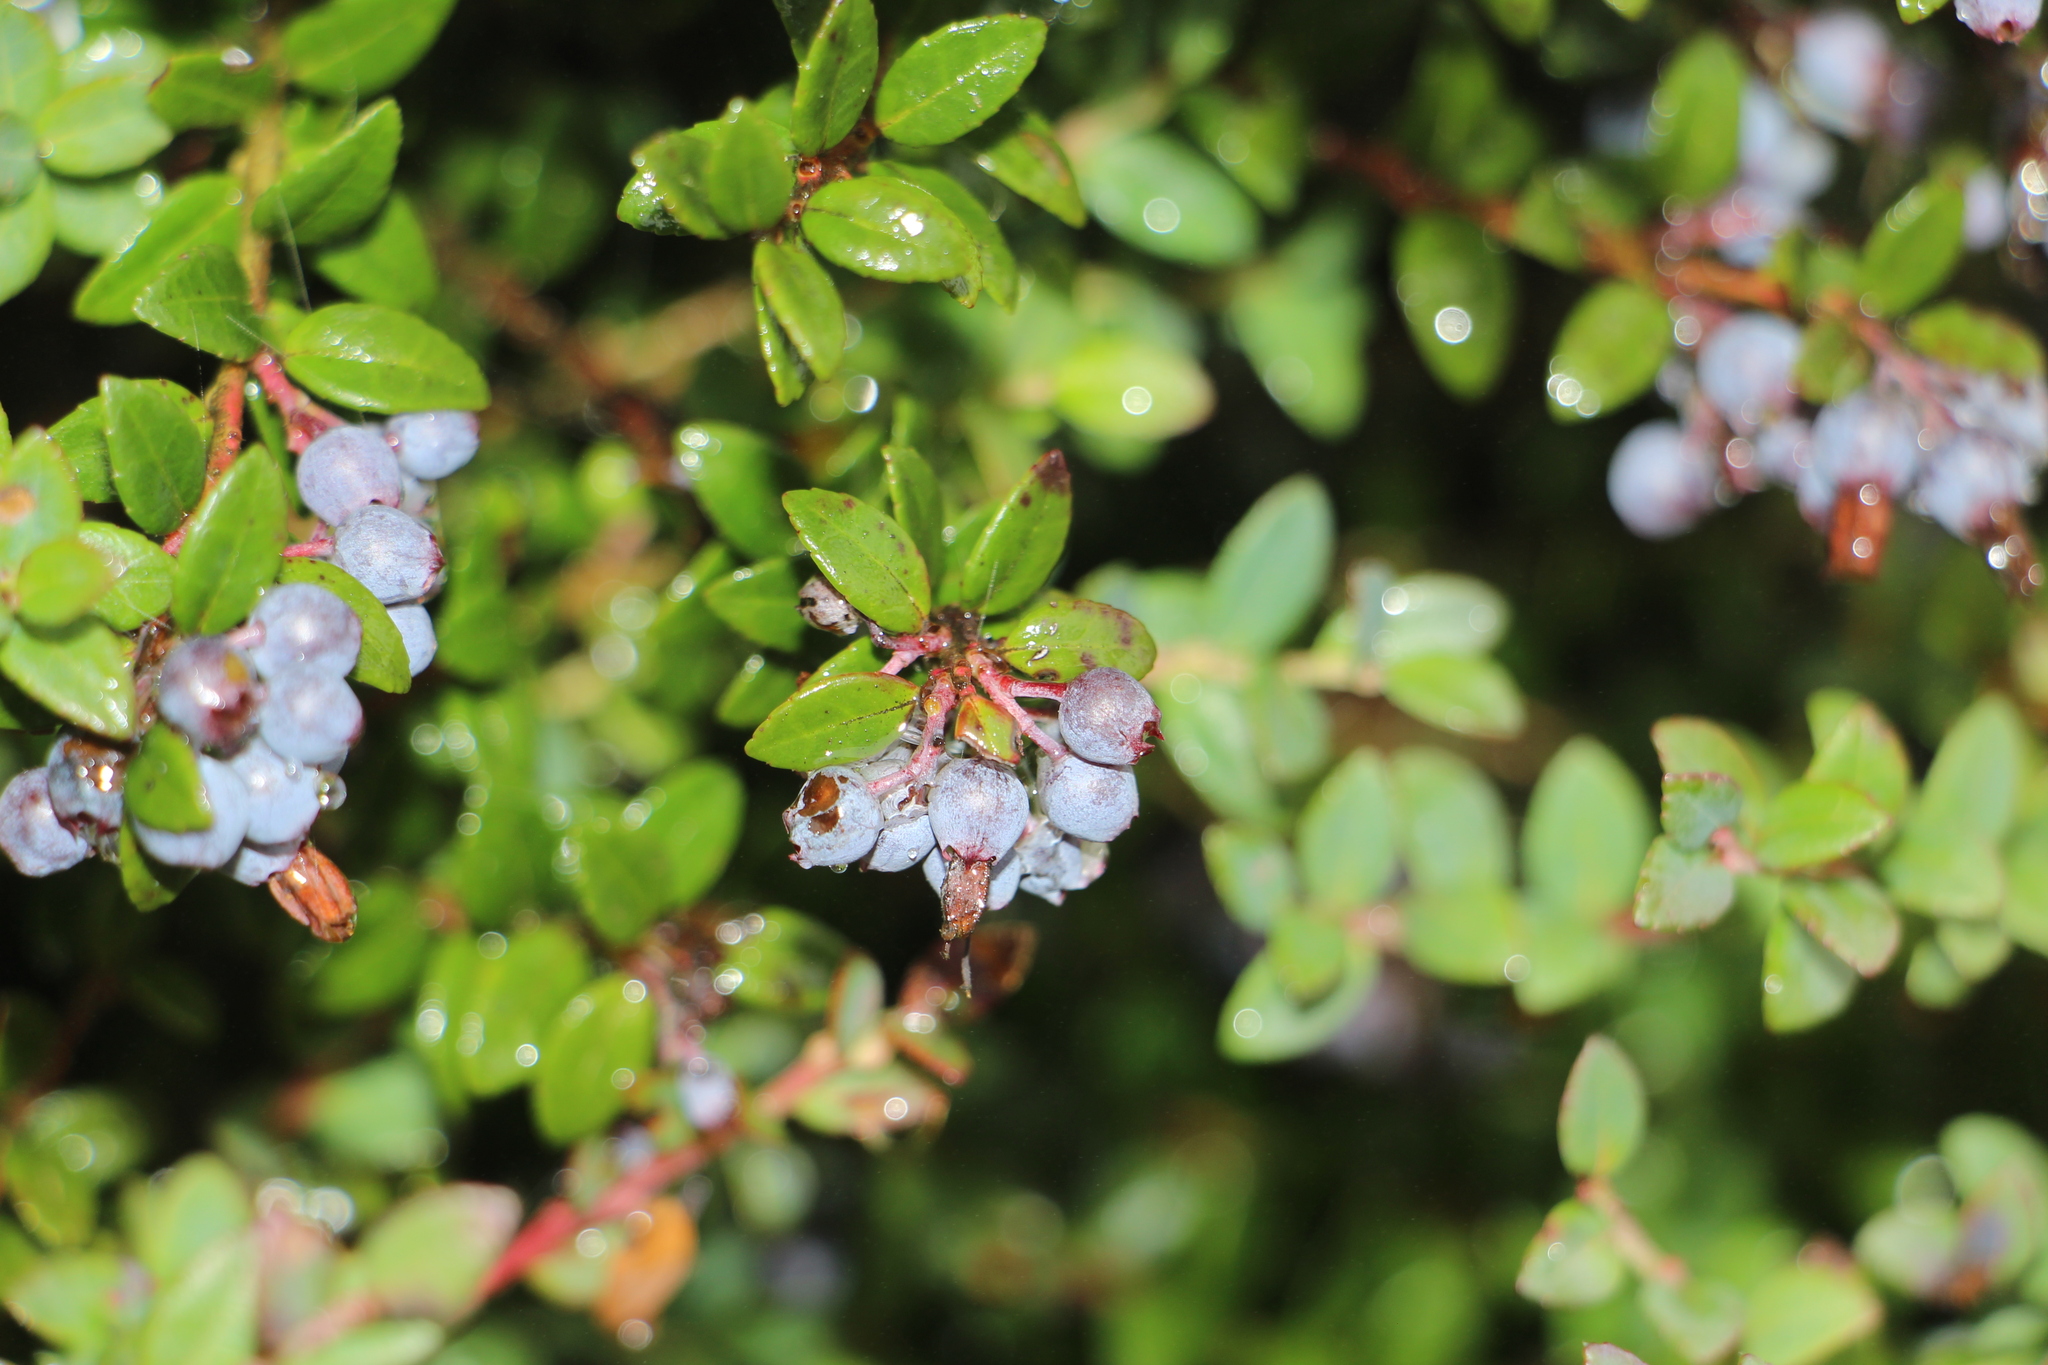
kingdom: Plantae
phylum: Tracheophyta
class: Magnoliopsida
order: Ericales
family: Ericaceae
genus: Vaccinium
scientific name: Vaccinium floribundum
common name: Colombian blueberry
